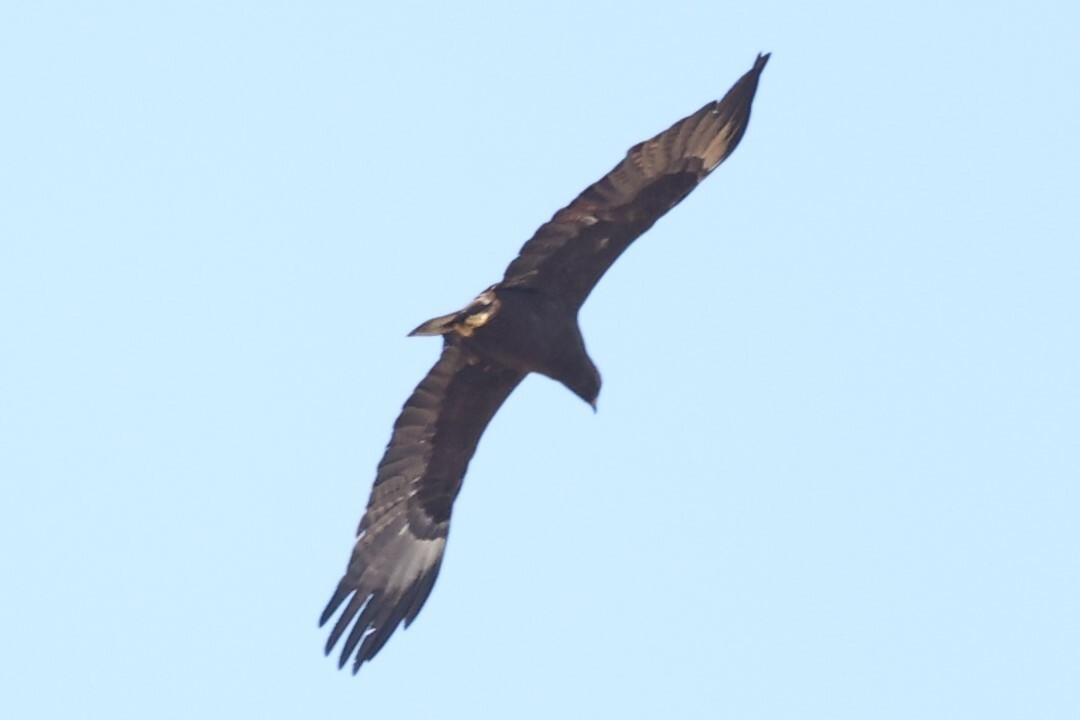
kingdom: Animalia
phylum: Chordata
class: Aves
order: Accipitriformes
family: Accipitridae
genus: Hieraaetus
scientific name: Hieraaetus wahlbergi
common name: Wahlberg's eagle
